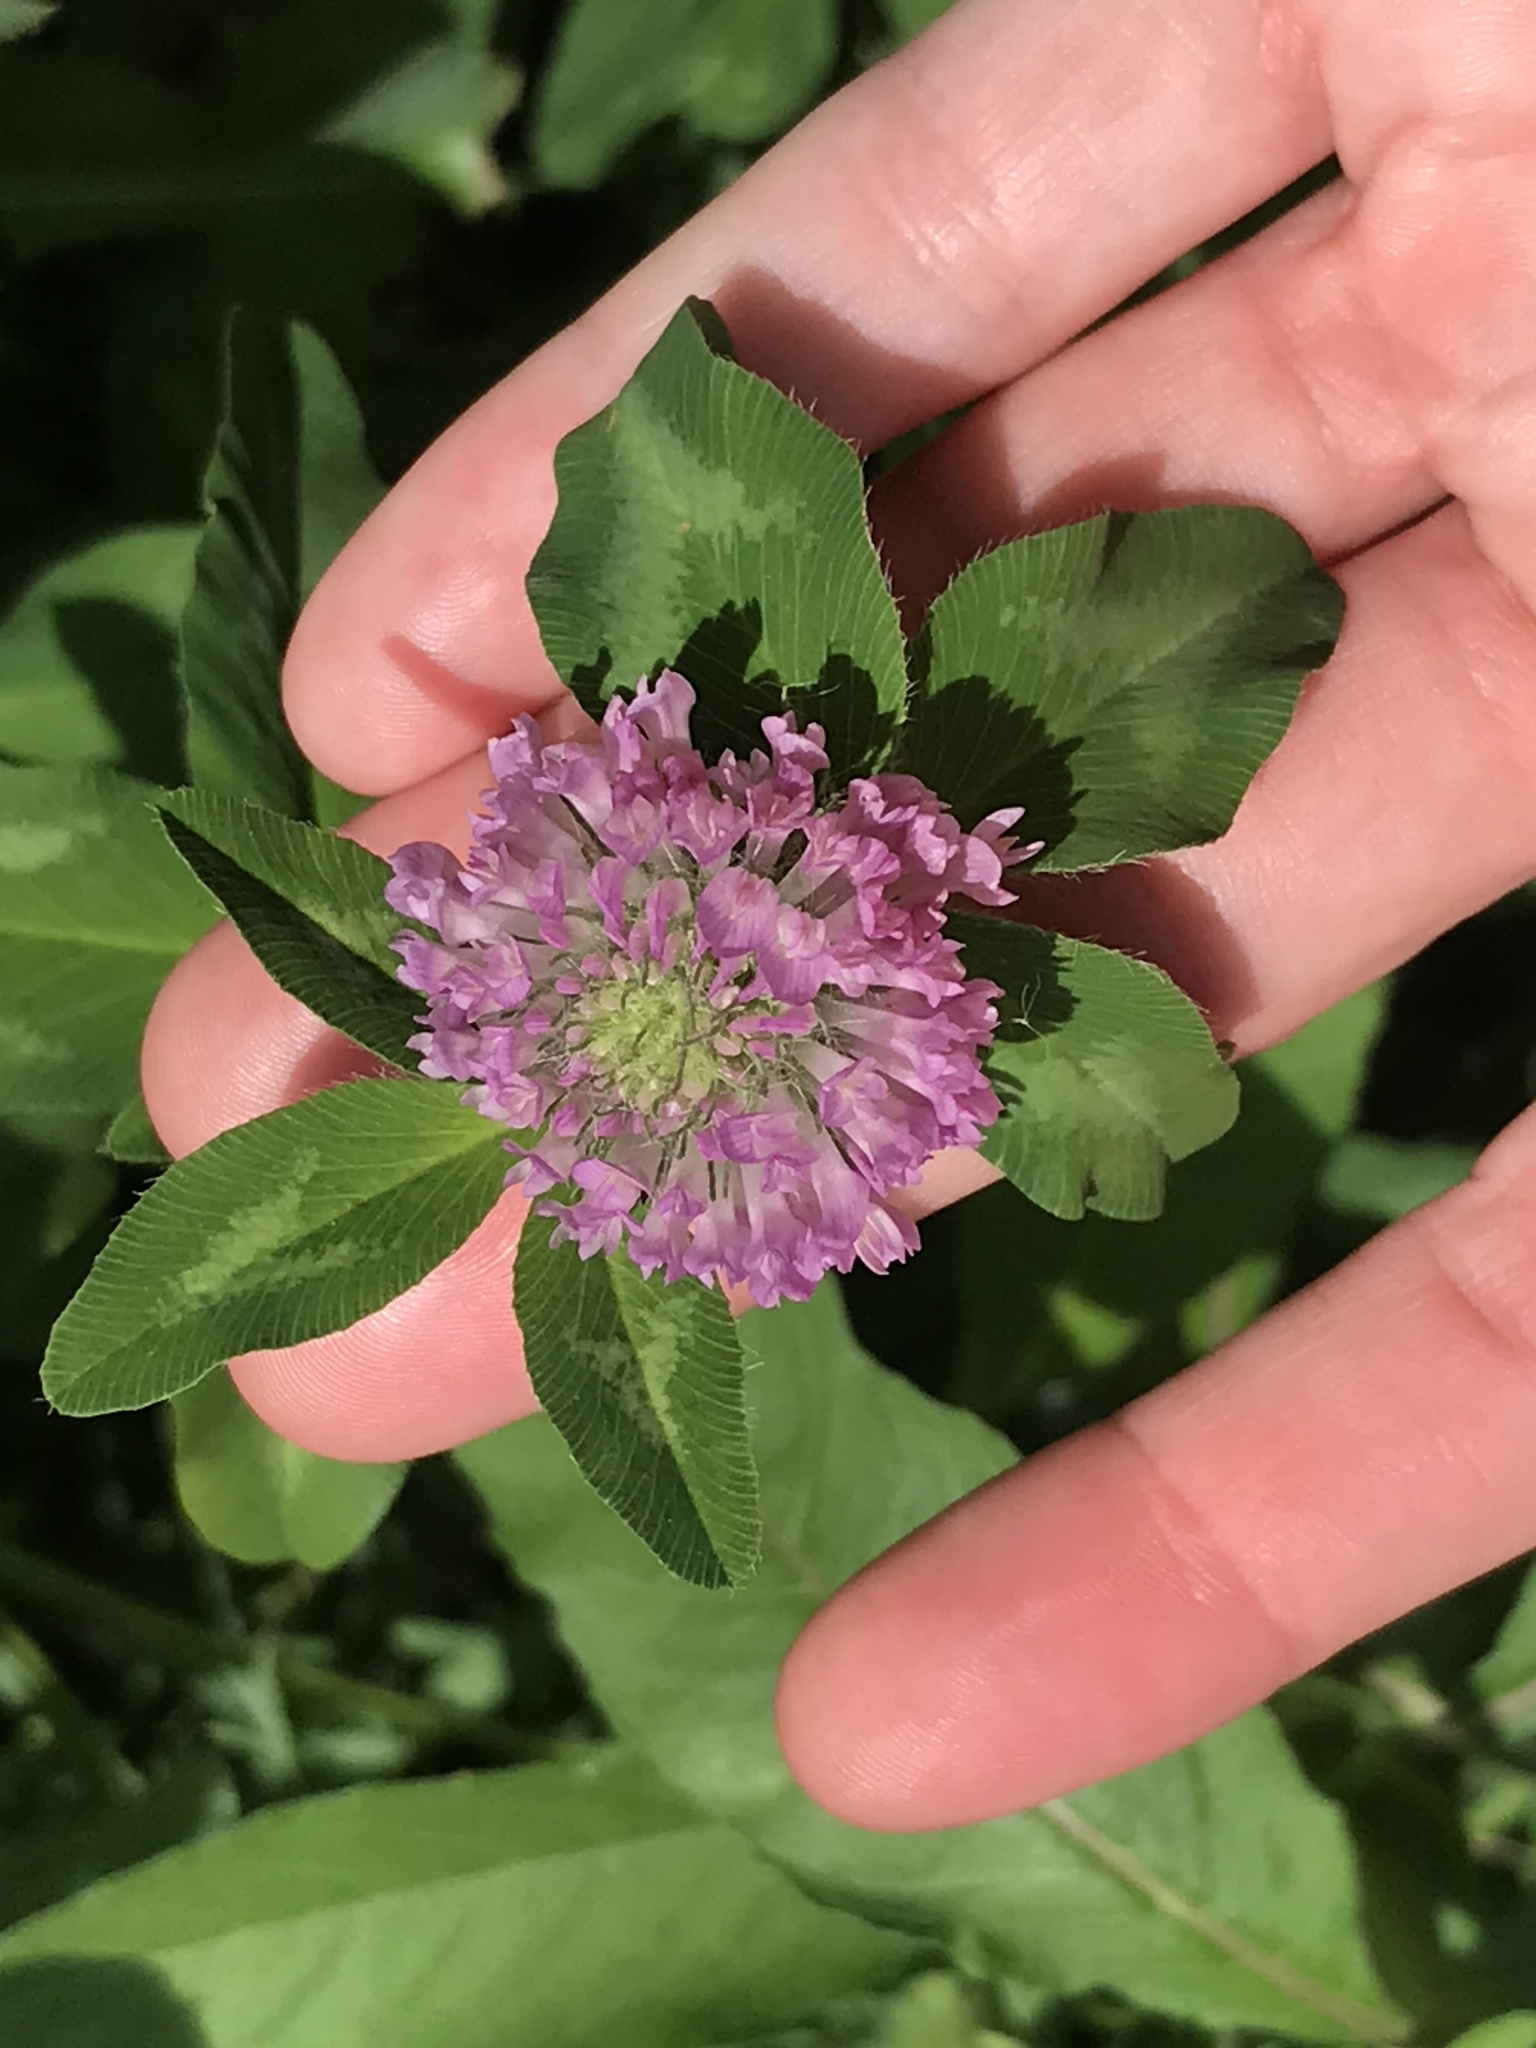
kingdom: Plantae
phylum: Tracheophyta
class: Magnoliopsida
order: Fabales
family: Fabaceae
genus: Trifolium
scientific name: Trifolium pratense
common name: Red clover
